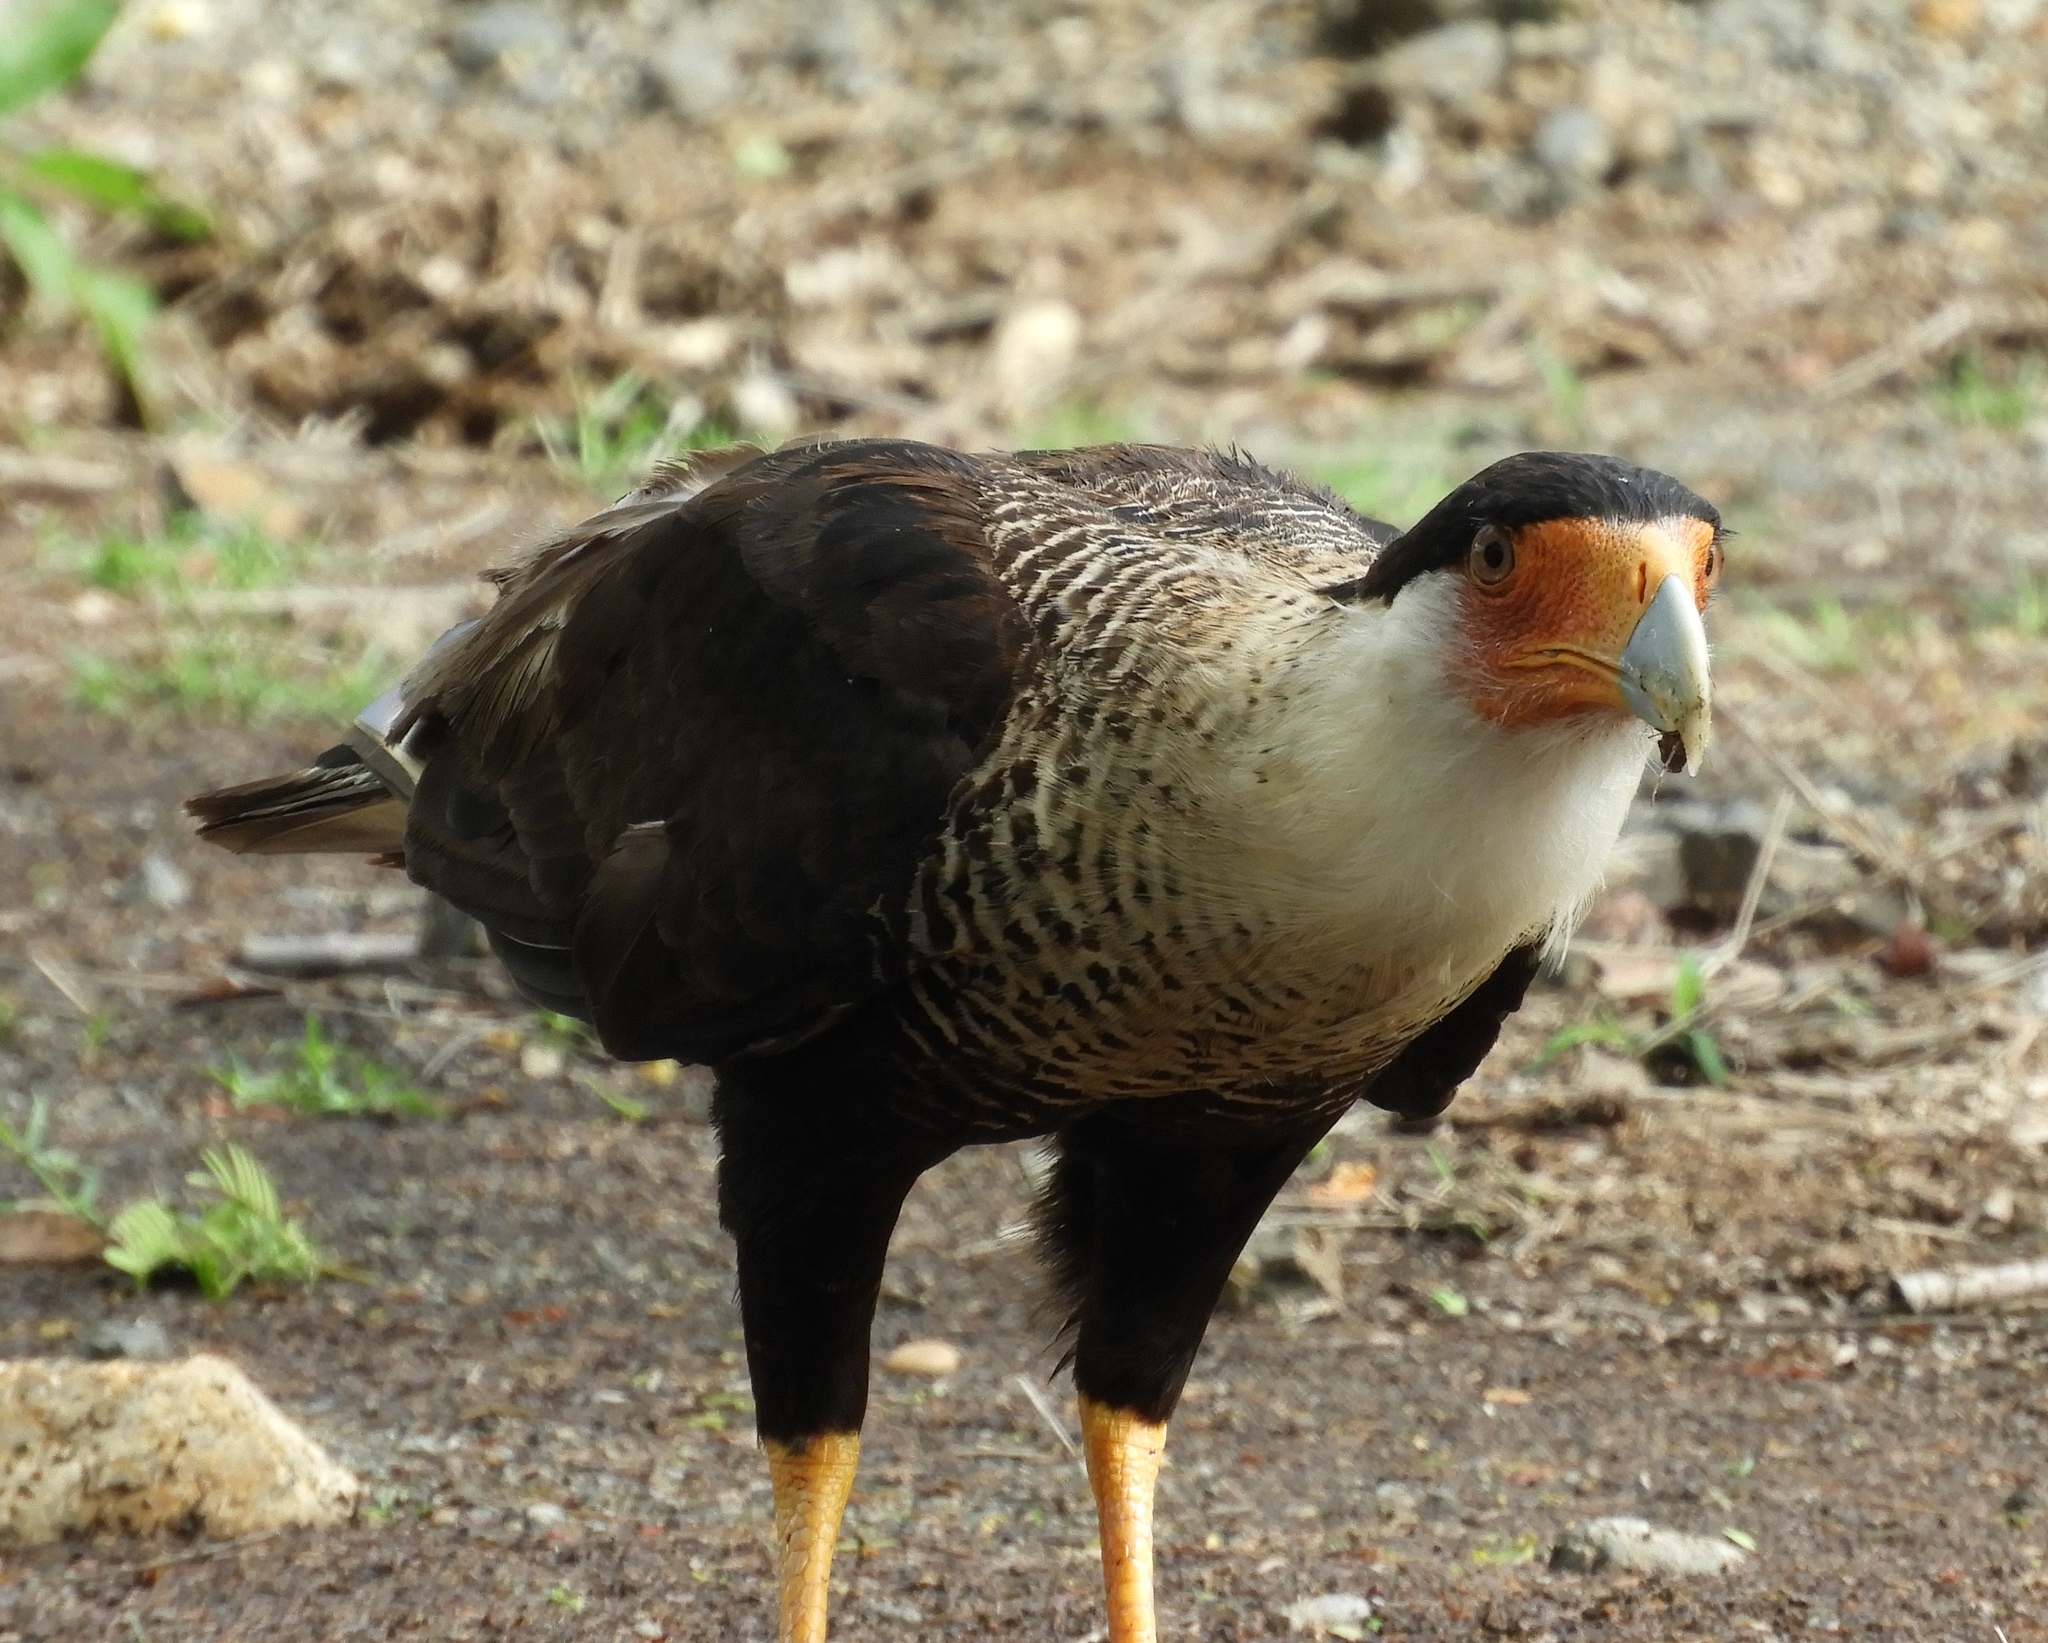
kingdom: Animalia
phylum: Chordata
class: Aves
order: Falconiformes
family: Falconidae
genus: Caracara
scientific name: Caracara plancus
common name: Southern caracara
